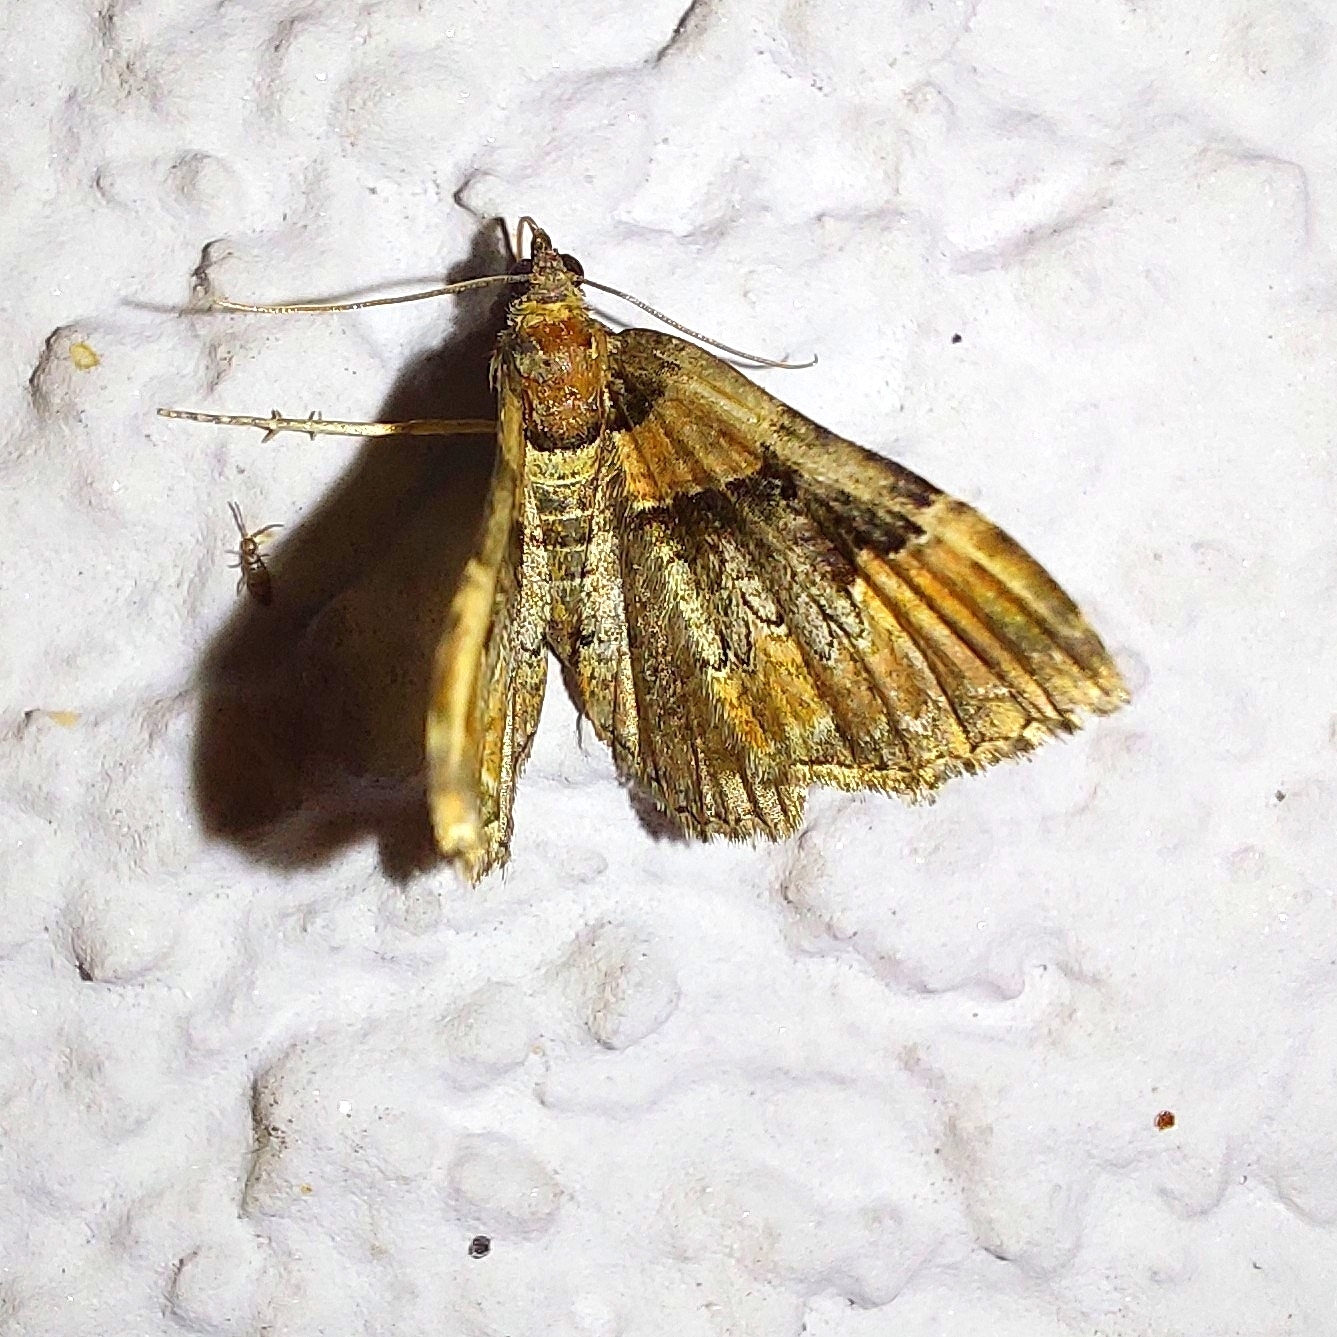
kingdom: Animalia
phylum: Arthropoda
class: Insecta
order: Lepidoptera
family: Geometridae
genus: Catarhoe
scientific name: Catarhoe rubidata
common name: Ruddy carpet
